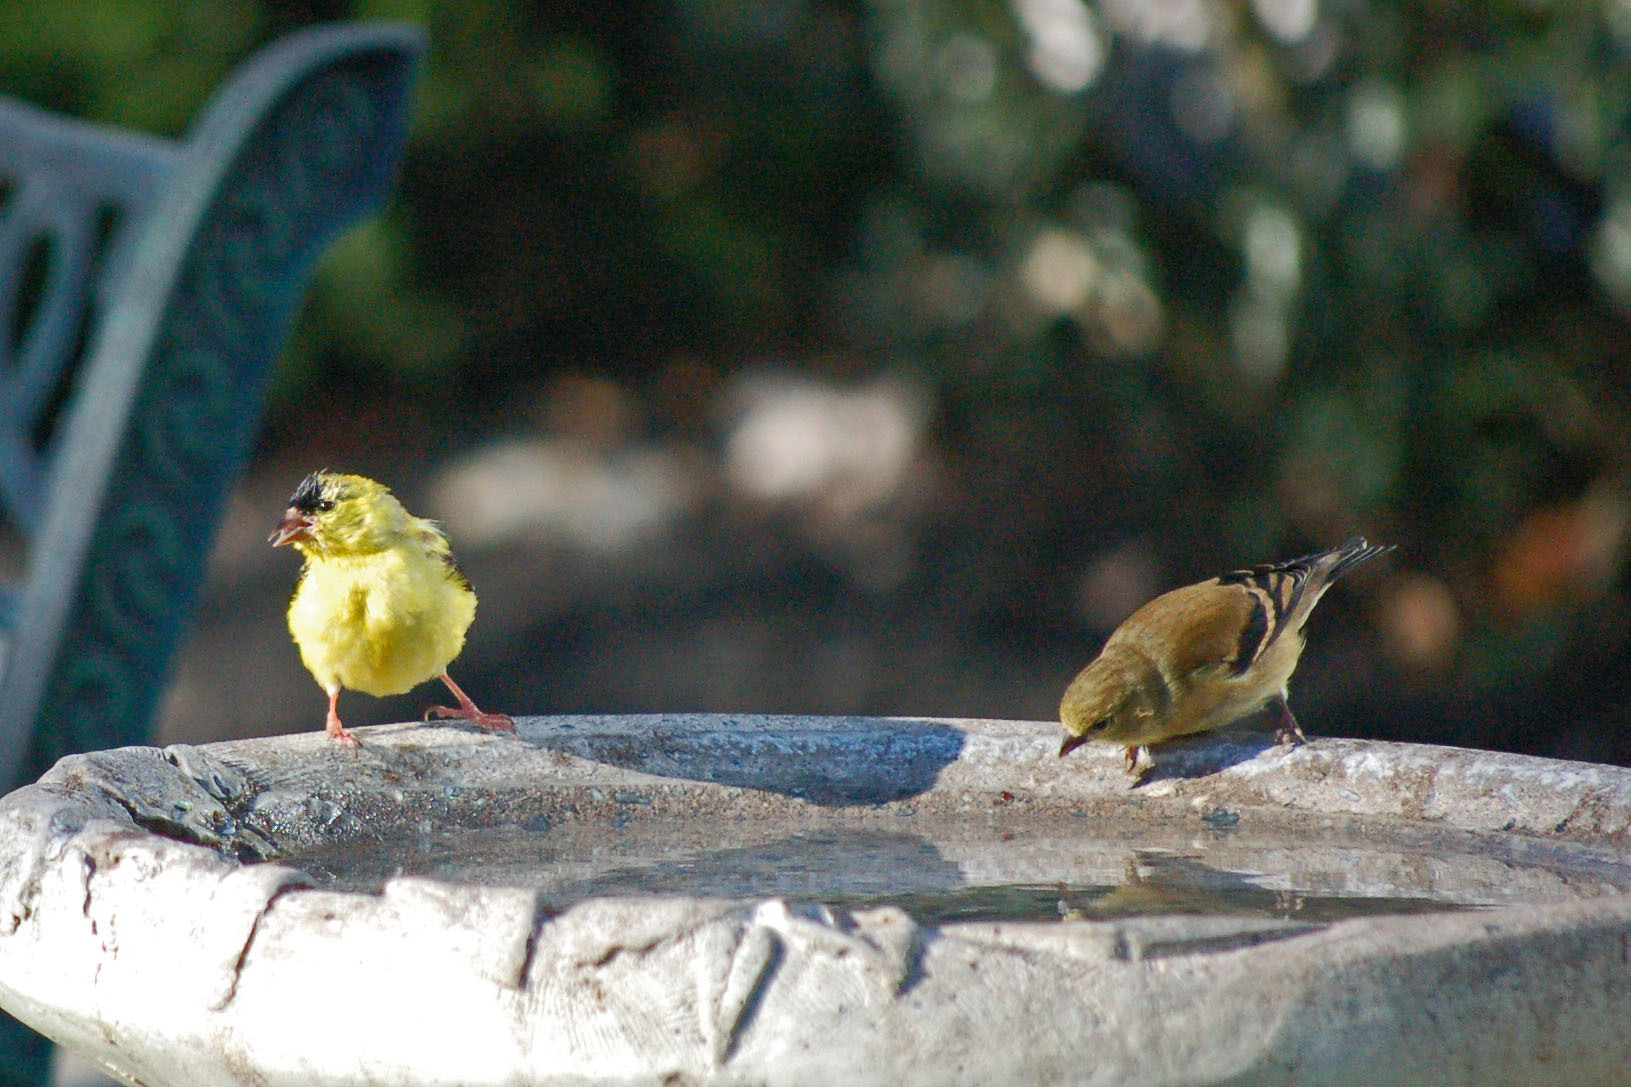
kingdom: Animalia
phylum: Chordata
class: Aves
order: Passeriformes
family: Fringillidae
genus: Spinus
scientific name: Spinus tristis
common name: American goldfinch
